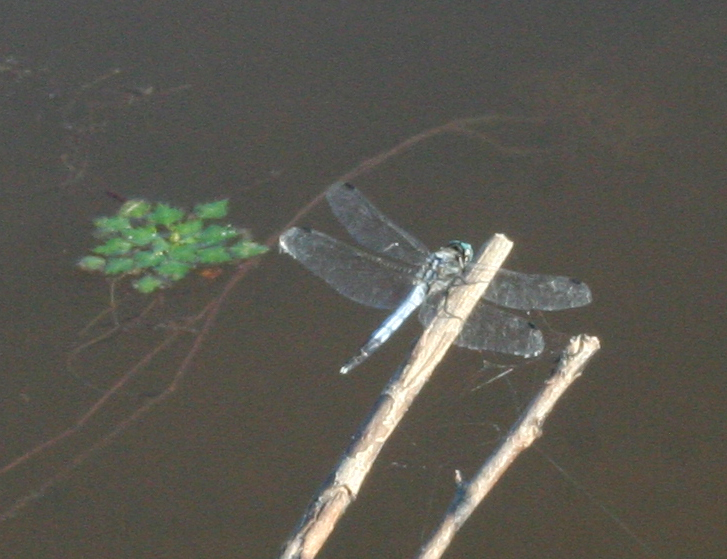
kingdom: Animalia
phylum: Arthropoda
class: Insecta
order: Odonata
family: Libellulidae
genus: Orthetrum
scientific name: Orthetrum albistylum
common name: White-tailed skimmer
